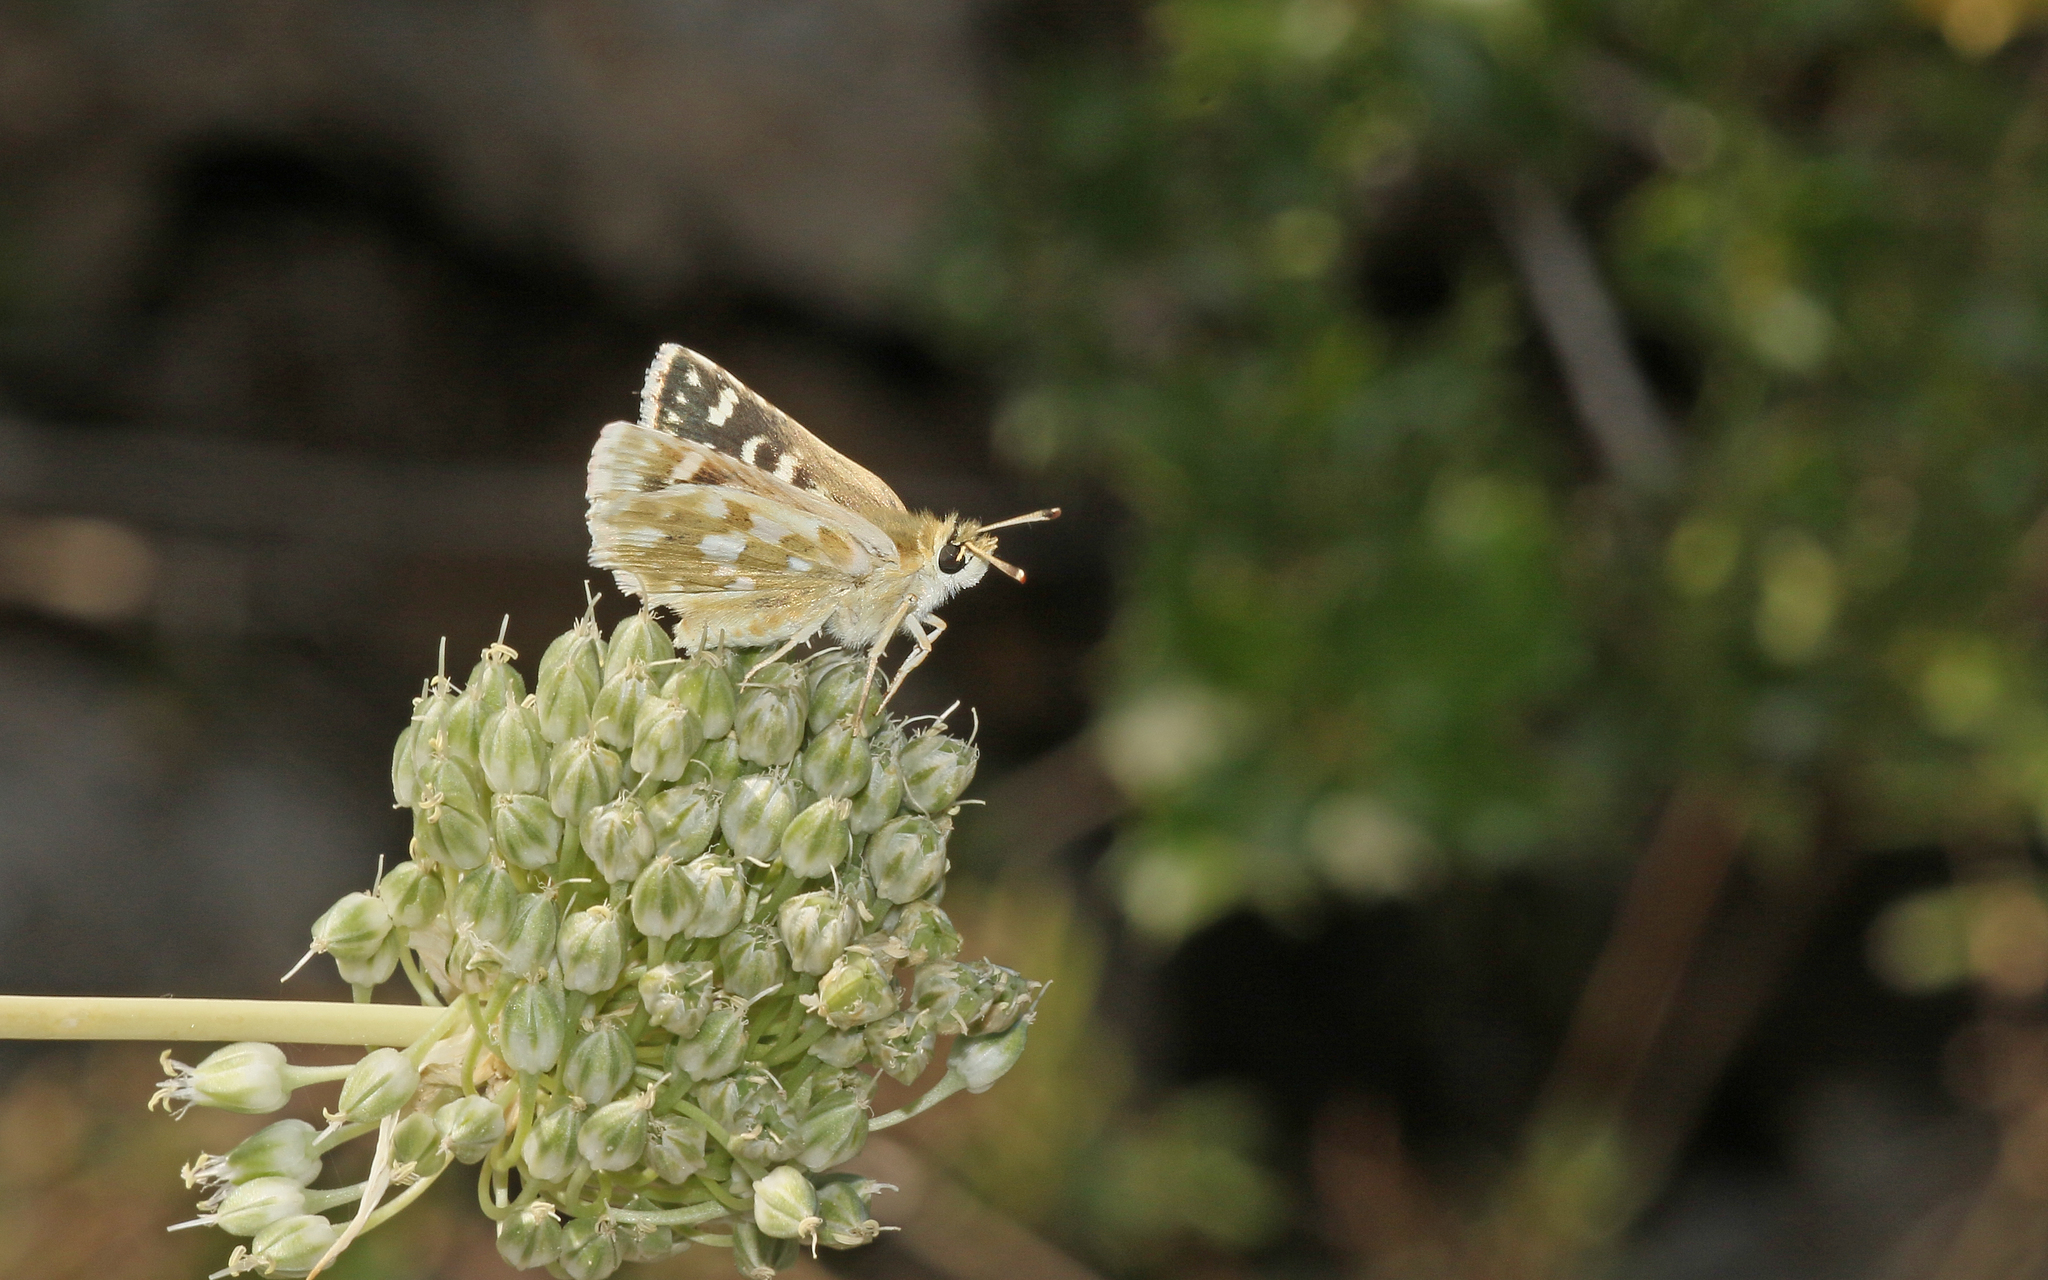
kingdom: Animalia
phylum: Arthropoda
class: Insecta
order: Lepidoptera
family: Hesperiidae
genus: Spialia
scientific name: Spialia phlomidis
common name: Persian skipper
